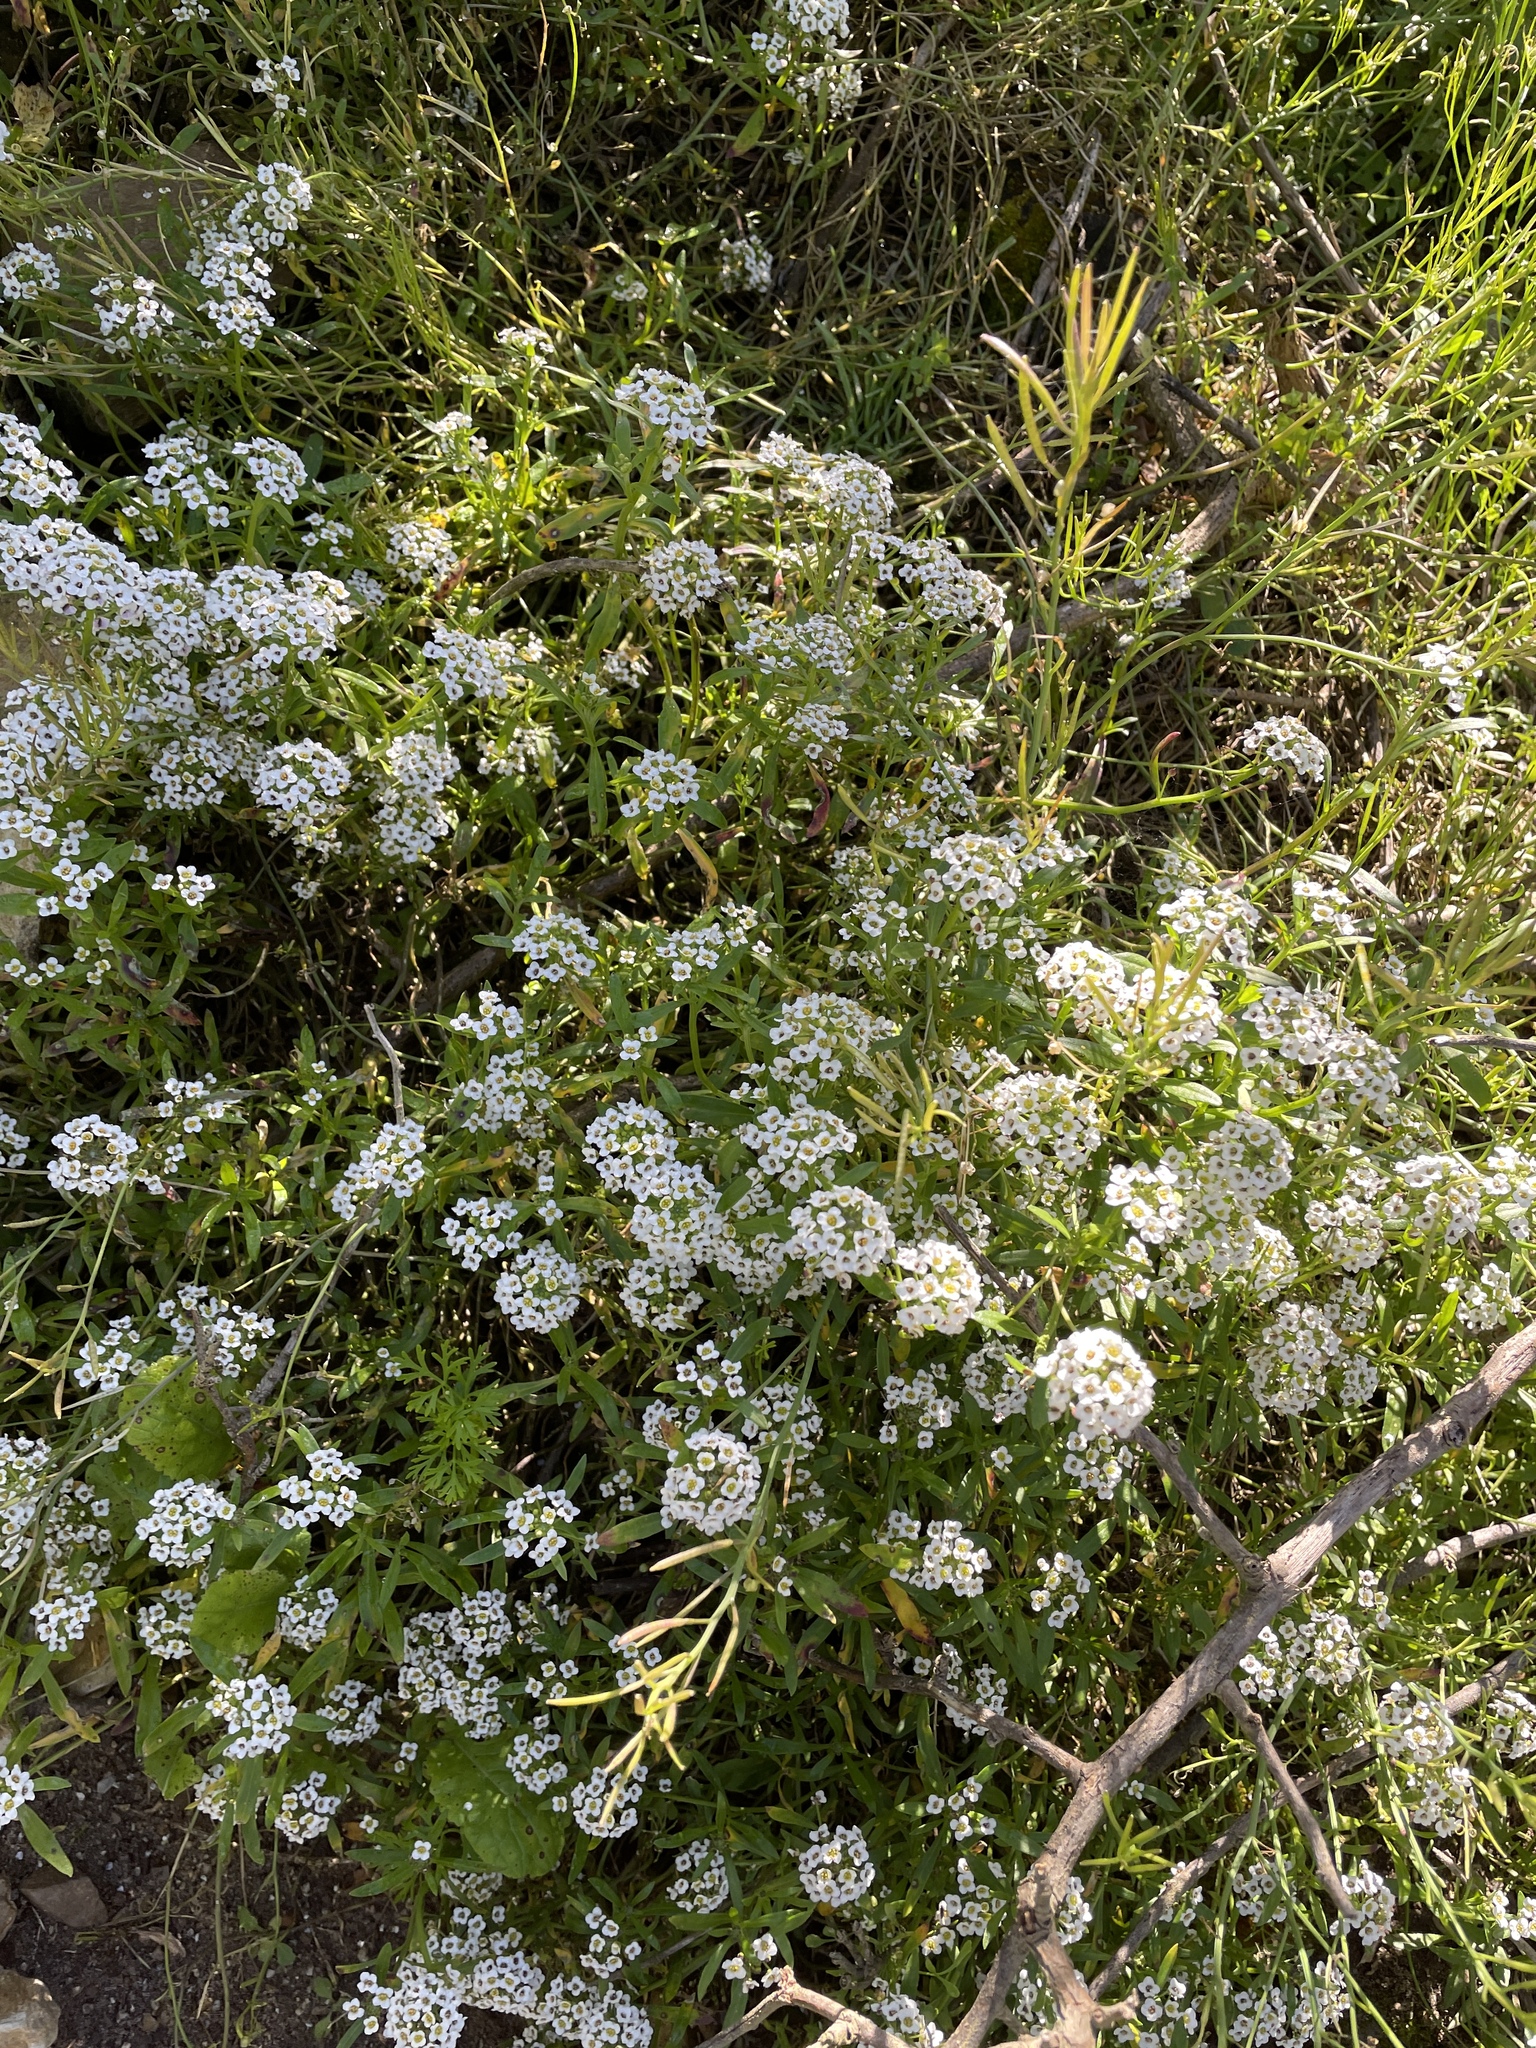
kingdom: Plantae
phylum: Tracheophyta
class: Magnoliopsida
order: Brassicales
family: Brassicaceae
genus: Lobularia
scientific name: Lobularia maritima
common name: Sweet alison
